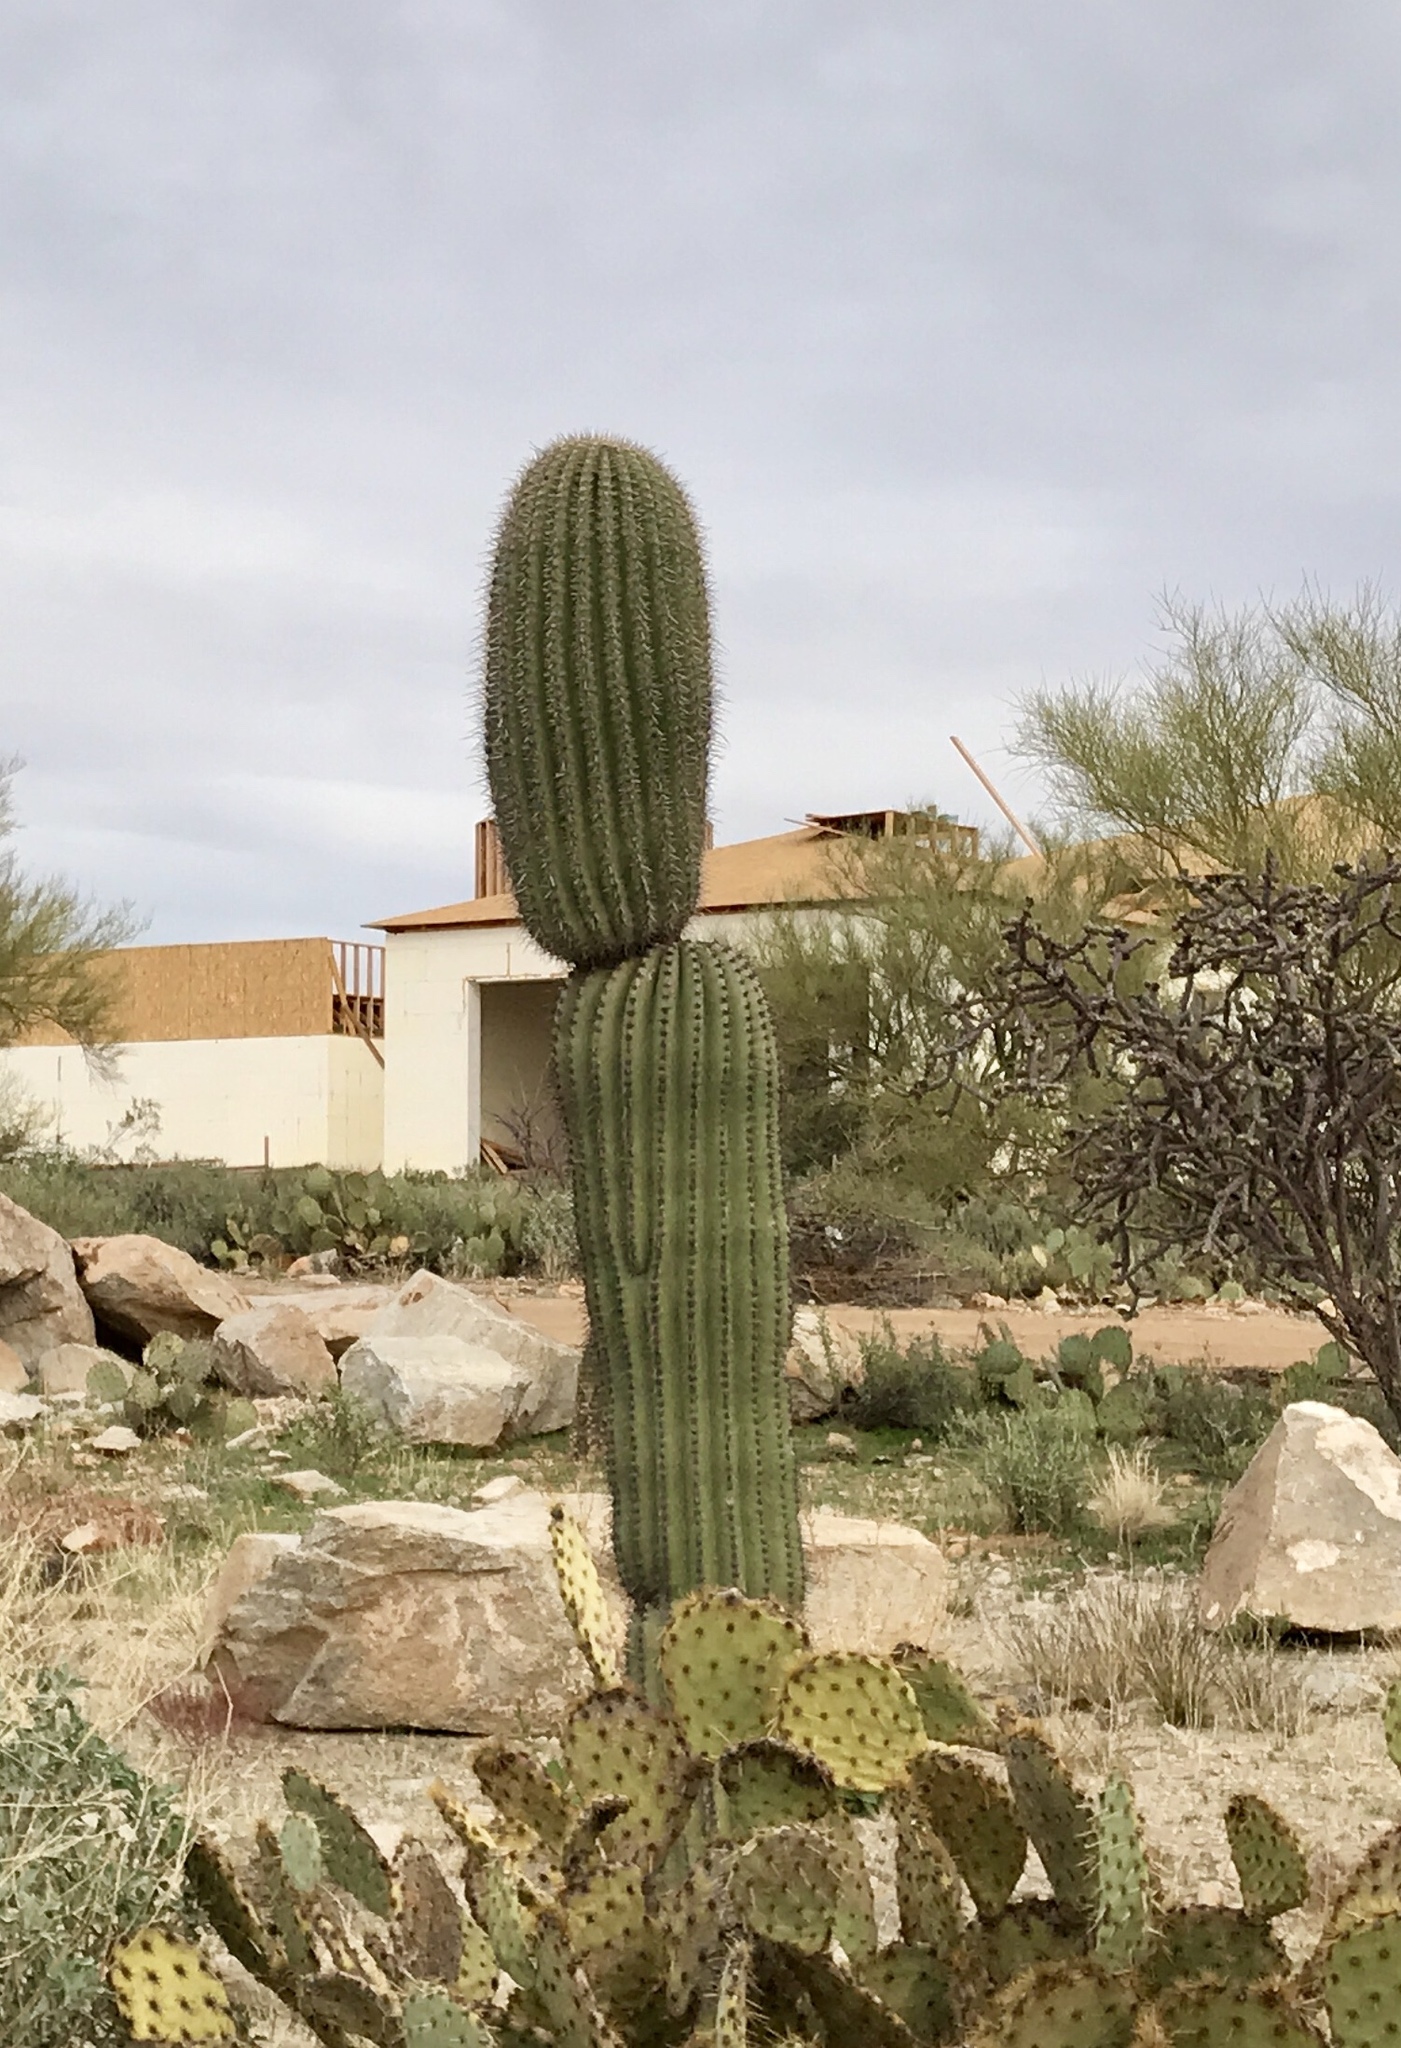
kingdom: Plantae
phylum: Tracheophyta
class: Magnoliopsida
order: Caryophyllales
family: Cactaceae
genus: Carnegiea
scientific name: Carnegiea gigantea
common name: Saguaro
